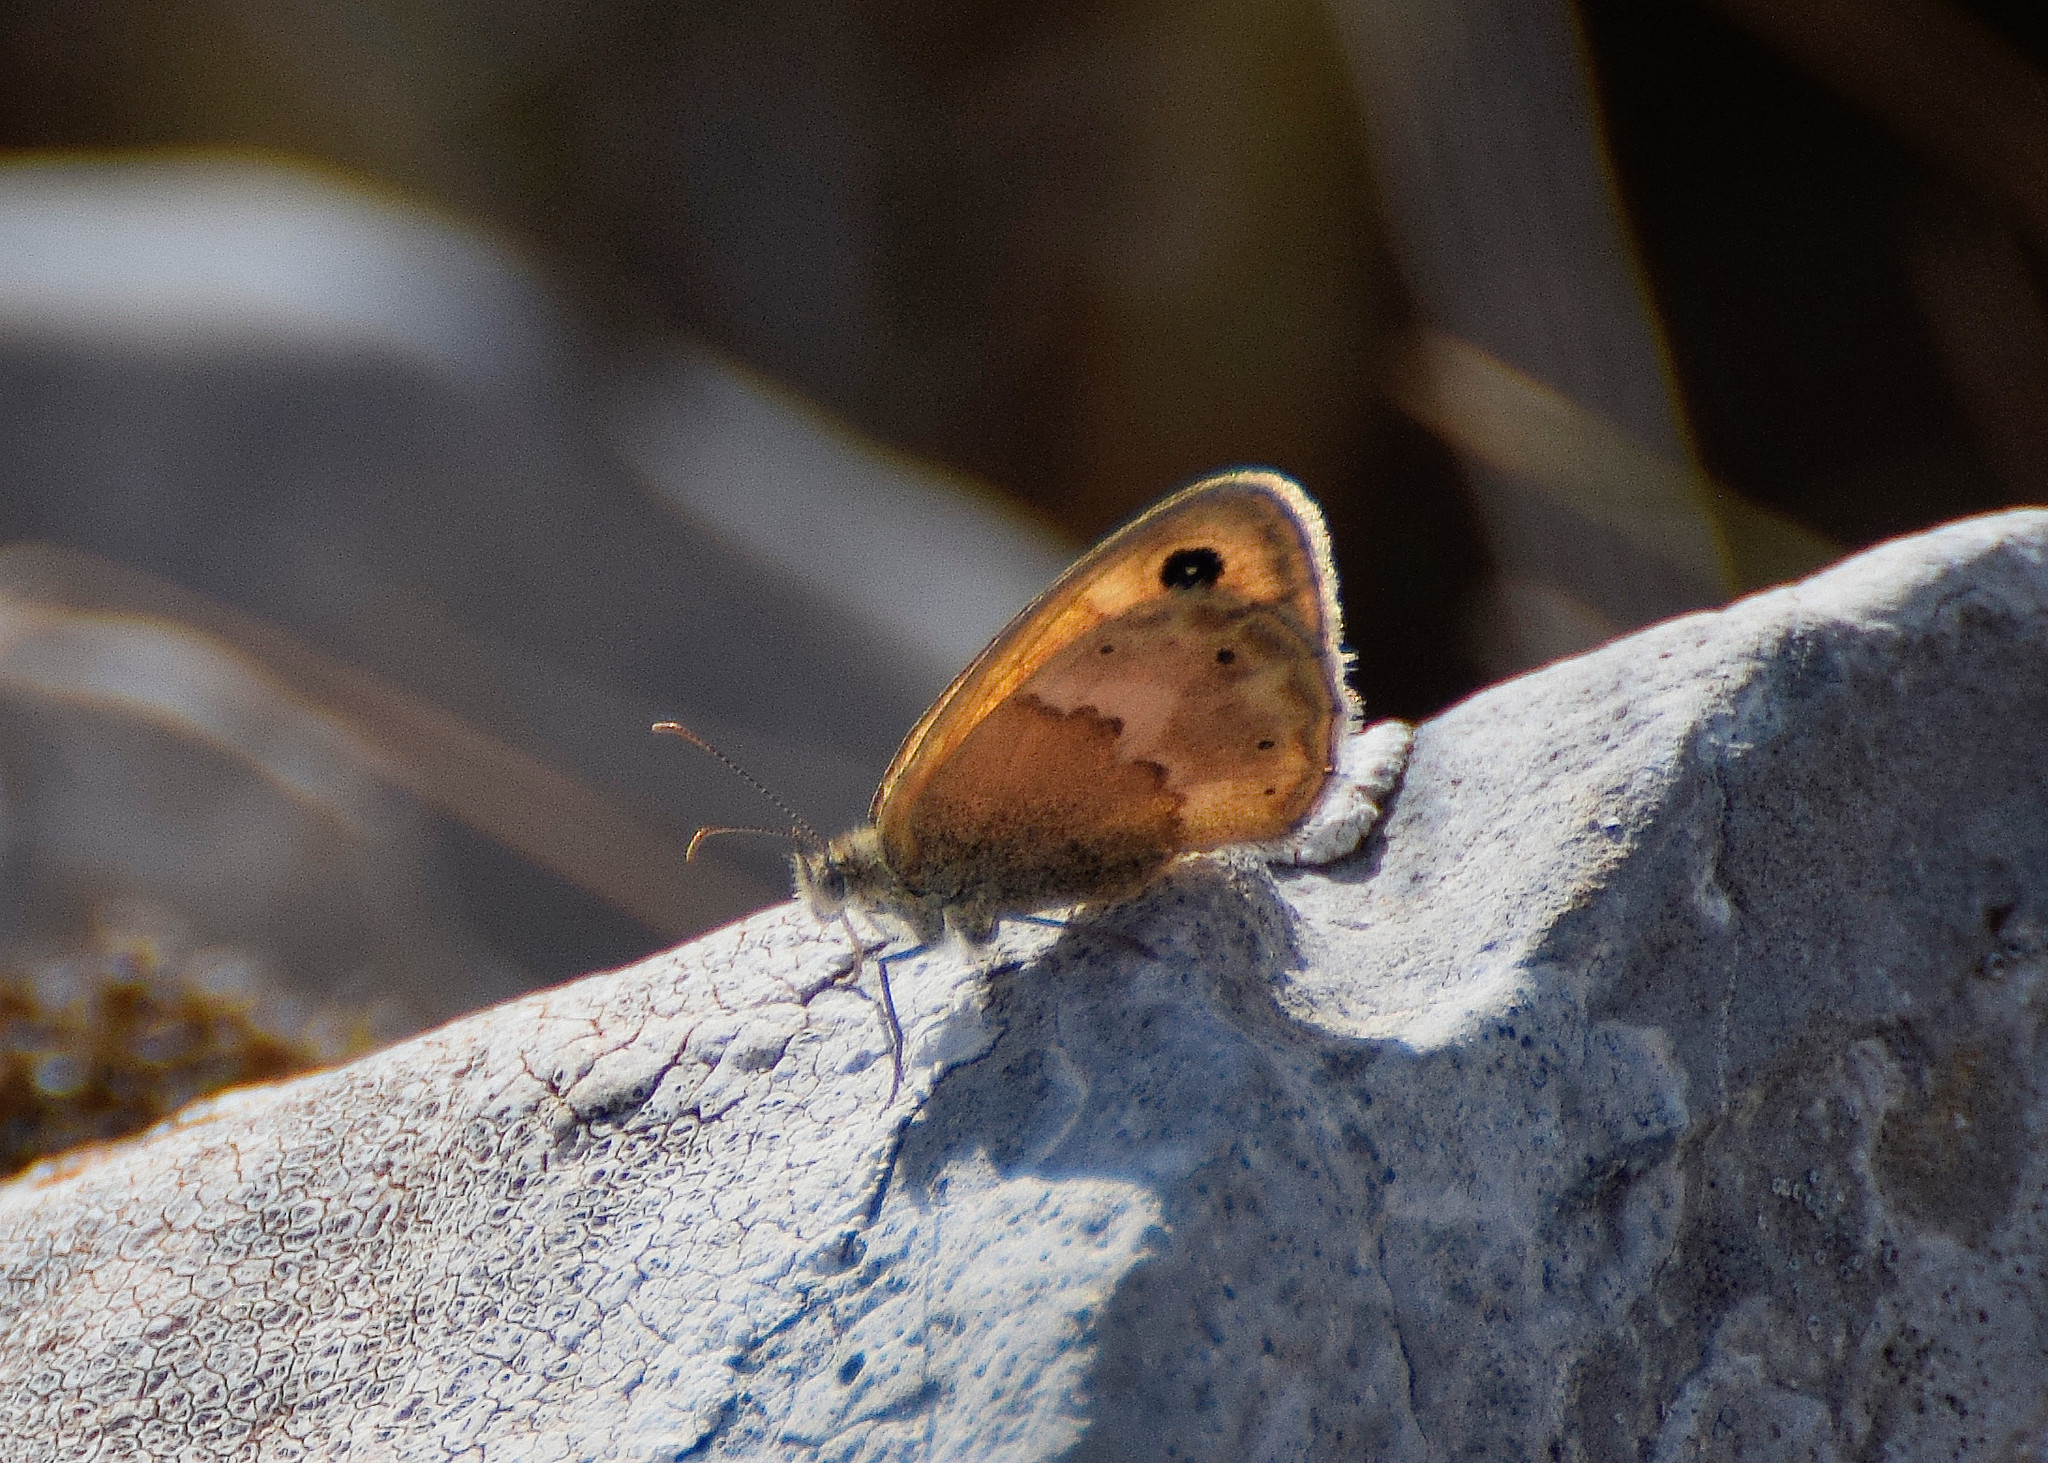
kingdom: Animalia
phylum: Arthropoda
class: Insecta
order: Lepidoptera
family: Nymphalidae
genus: Coenonympha
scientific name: Coenonympha thyrsis
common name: Cretan small heath
